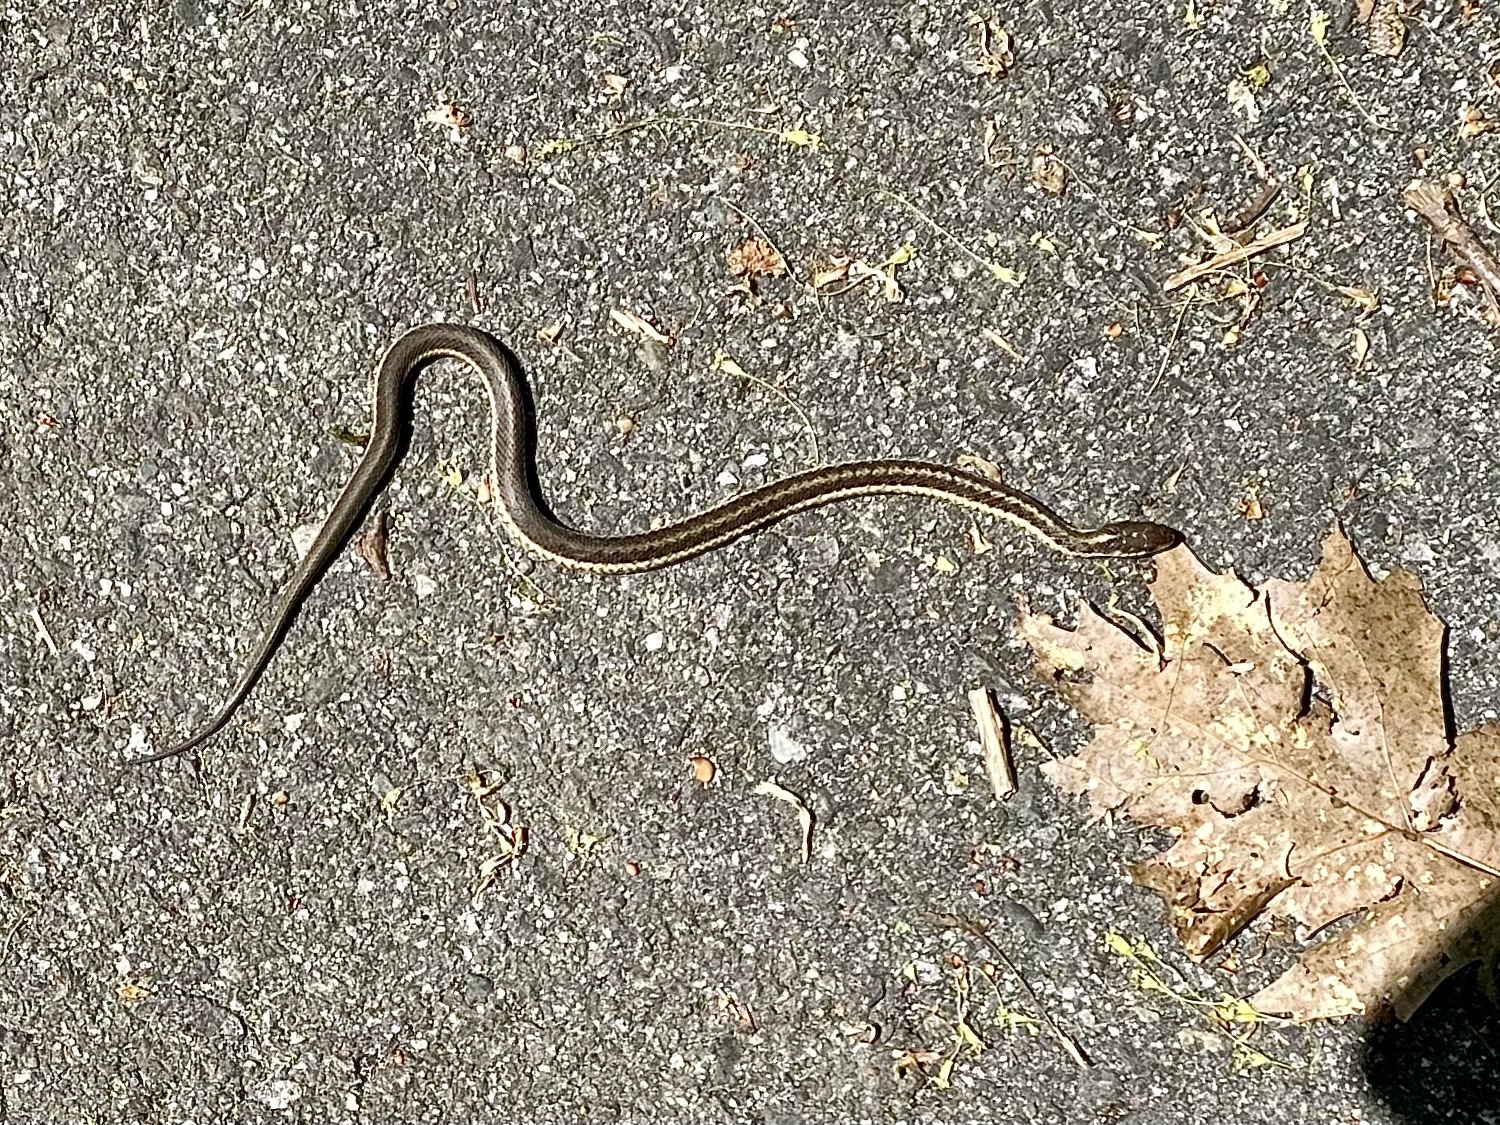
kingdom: Animalia
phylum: Chordata
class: Squamata
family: Colubridae
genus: Thamnophis
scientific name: Thamnophis sirtalis
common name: Common garter snake
